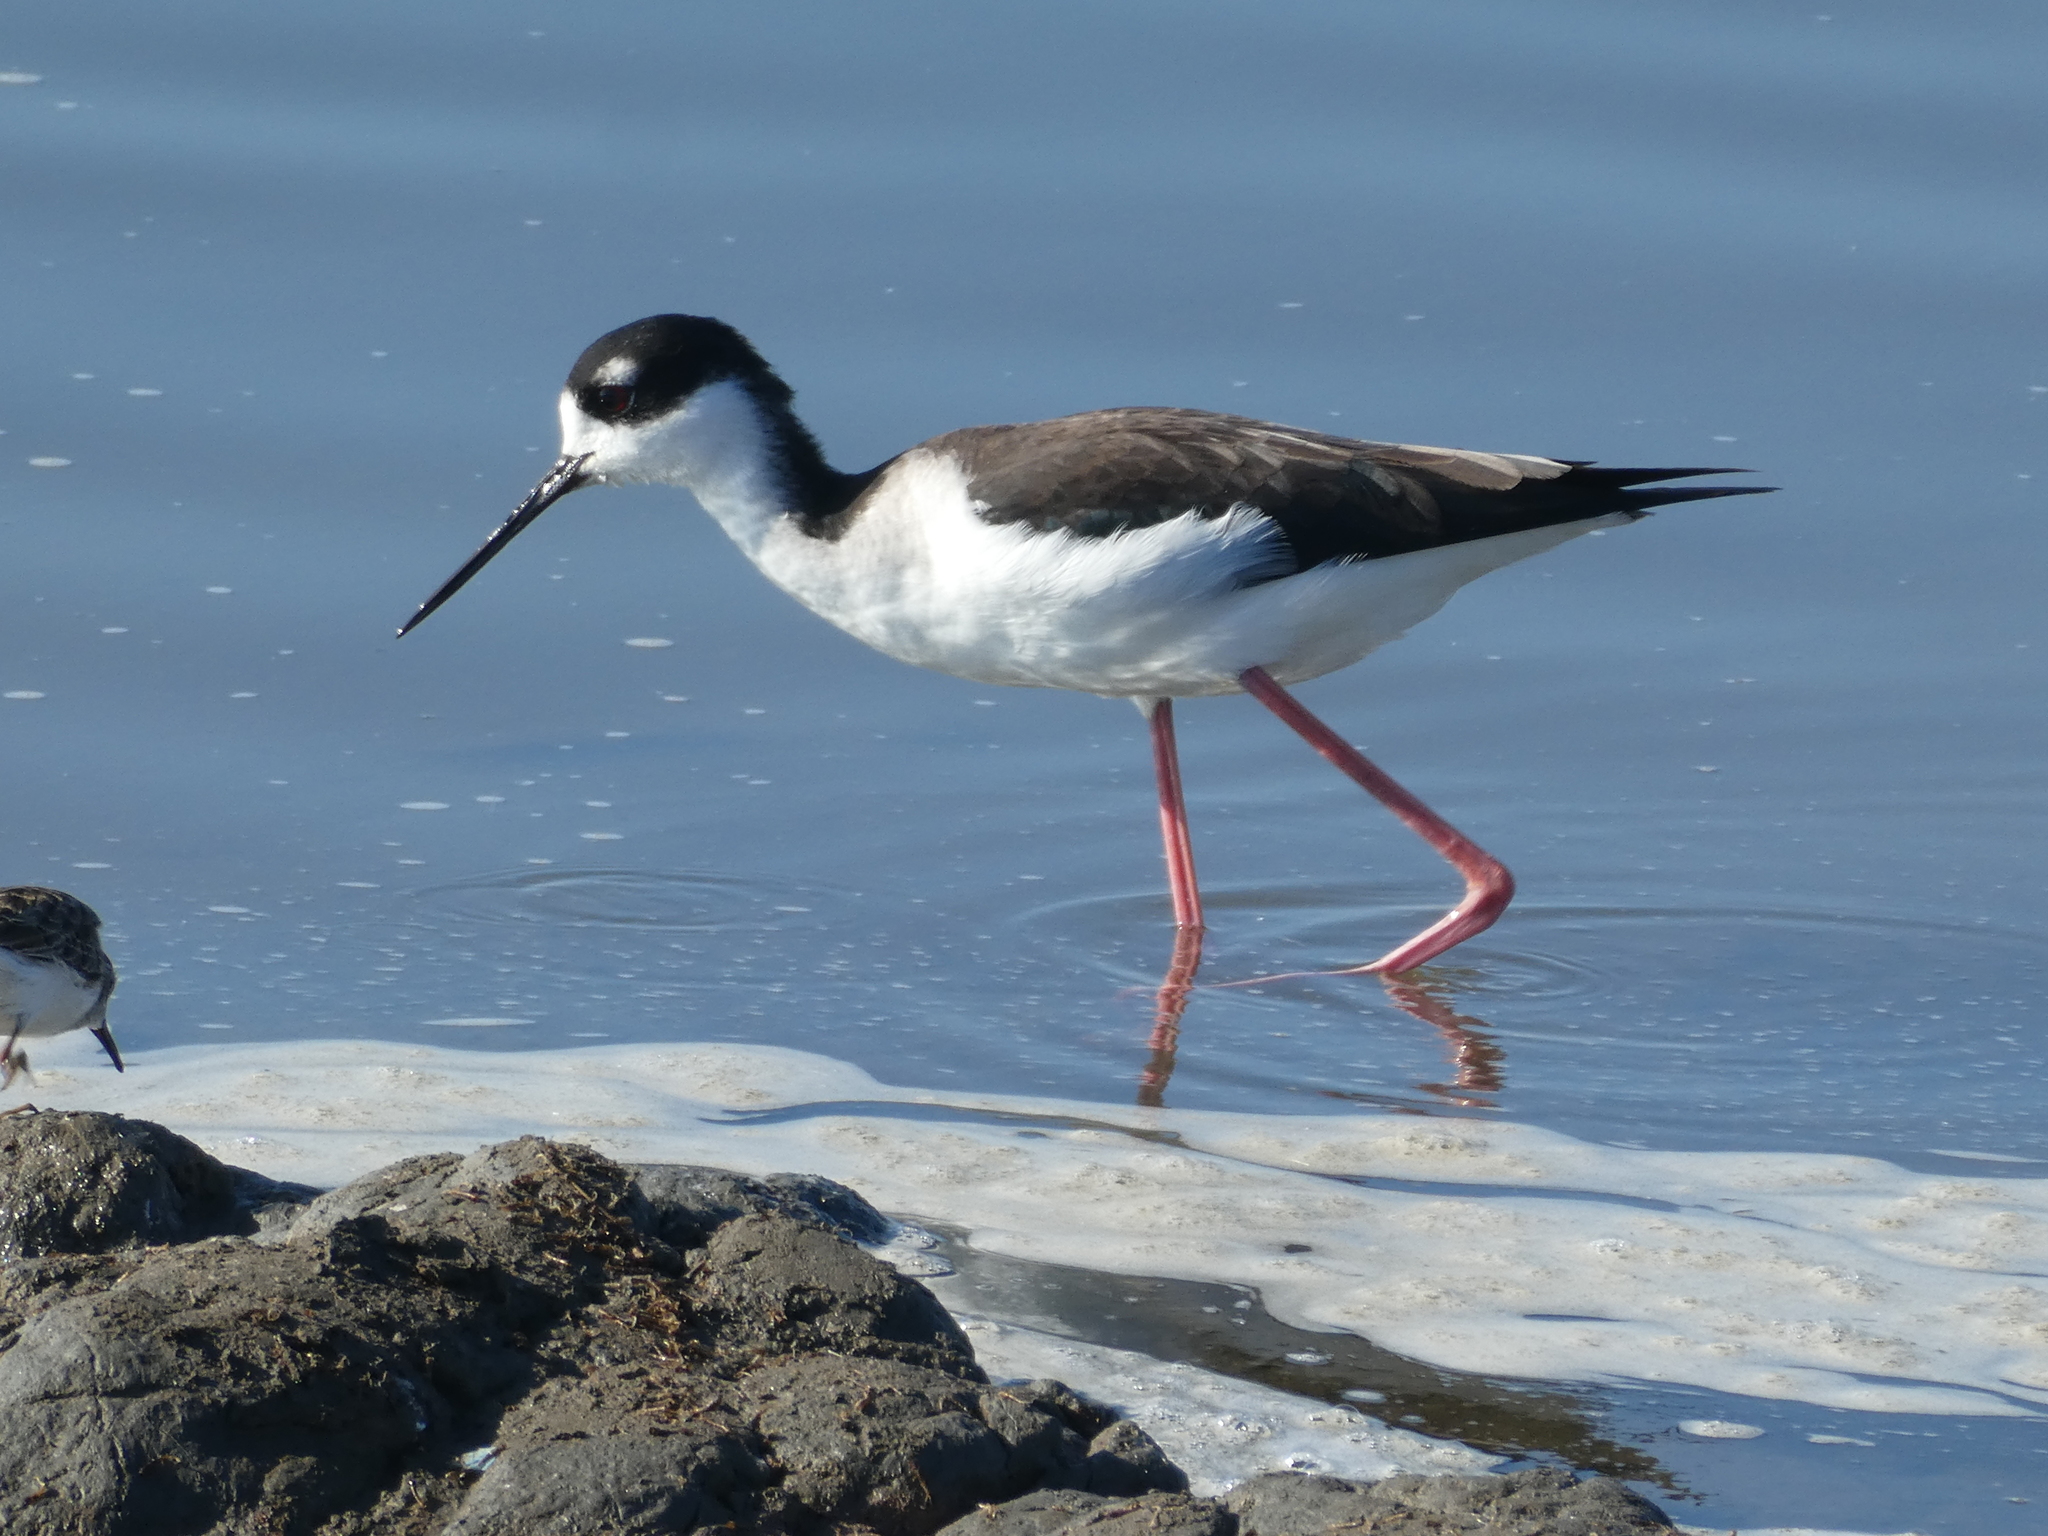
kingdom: Animalia
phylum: Chordata
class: Aves
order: Charadriiformes
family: Recurvirostridae
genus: Himantopus
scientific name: Himantopus mexicanus
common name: Black-necked stilt
